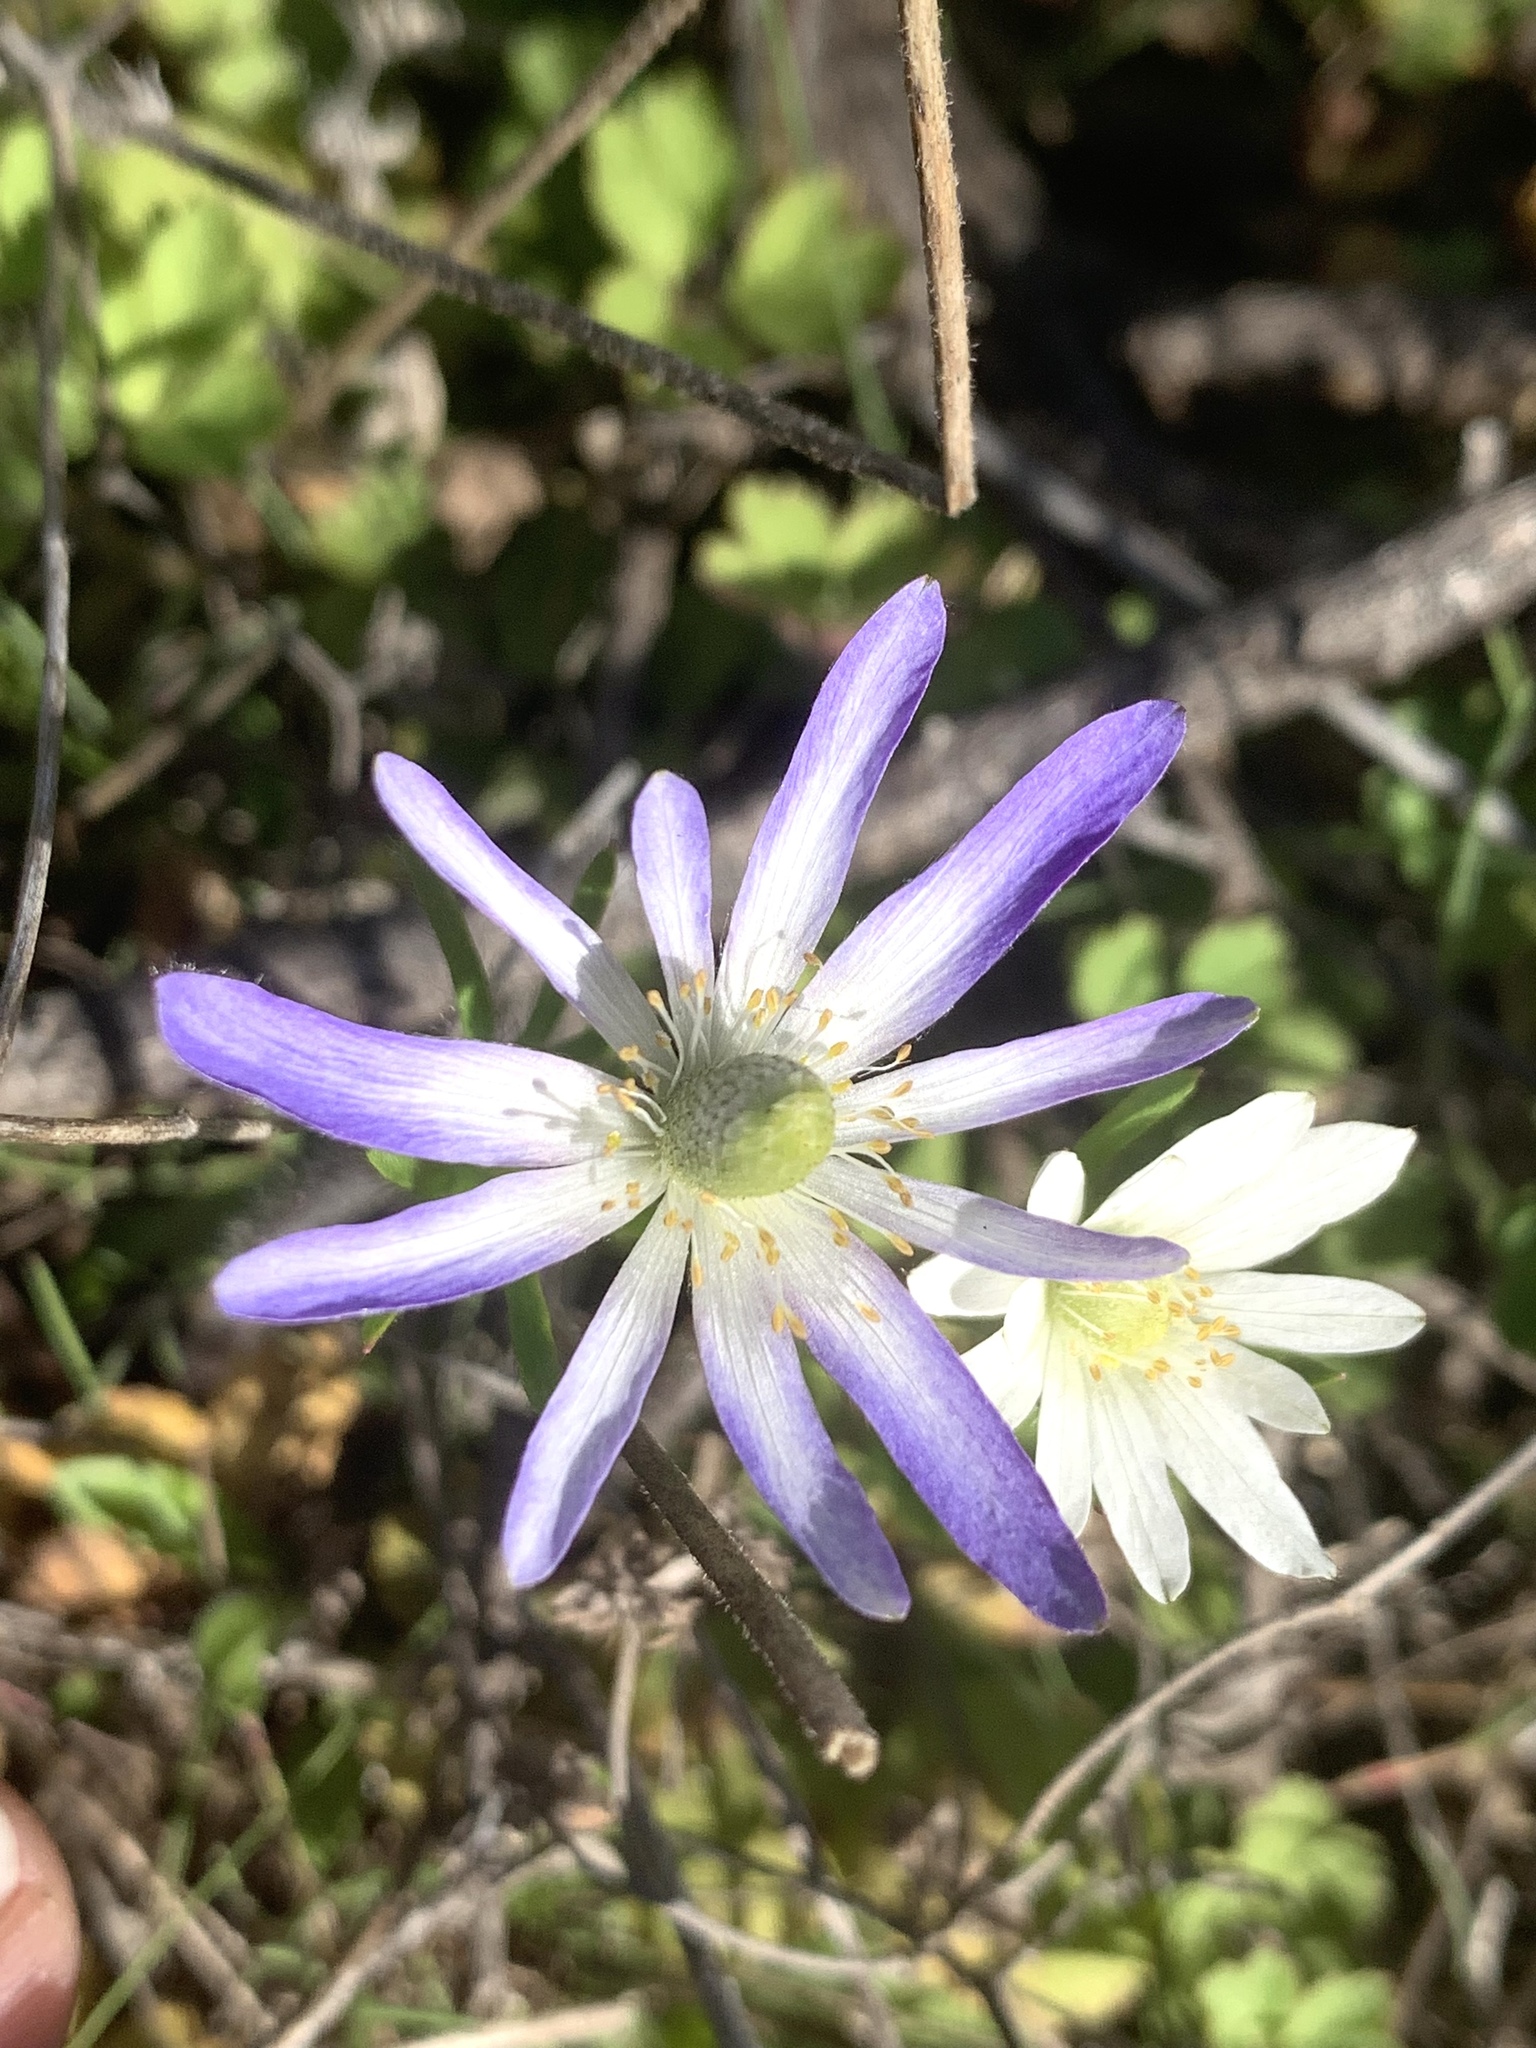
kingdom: Plantae
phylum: Tracheophyta
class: Magnoliopsida
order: Ranunculales
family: Ranunculaceae
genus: Anemone
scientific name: Anemone berlandieri
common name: Ten-petal anemone
